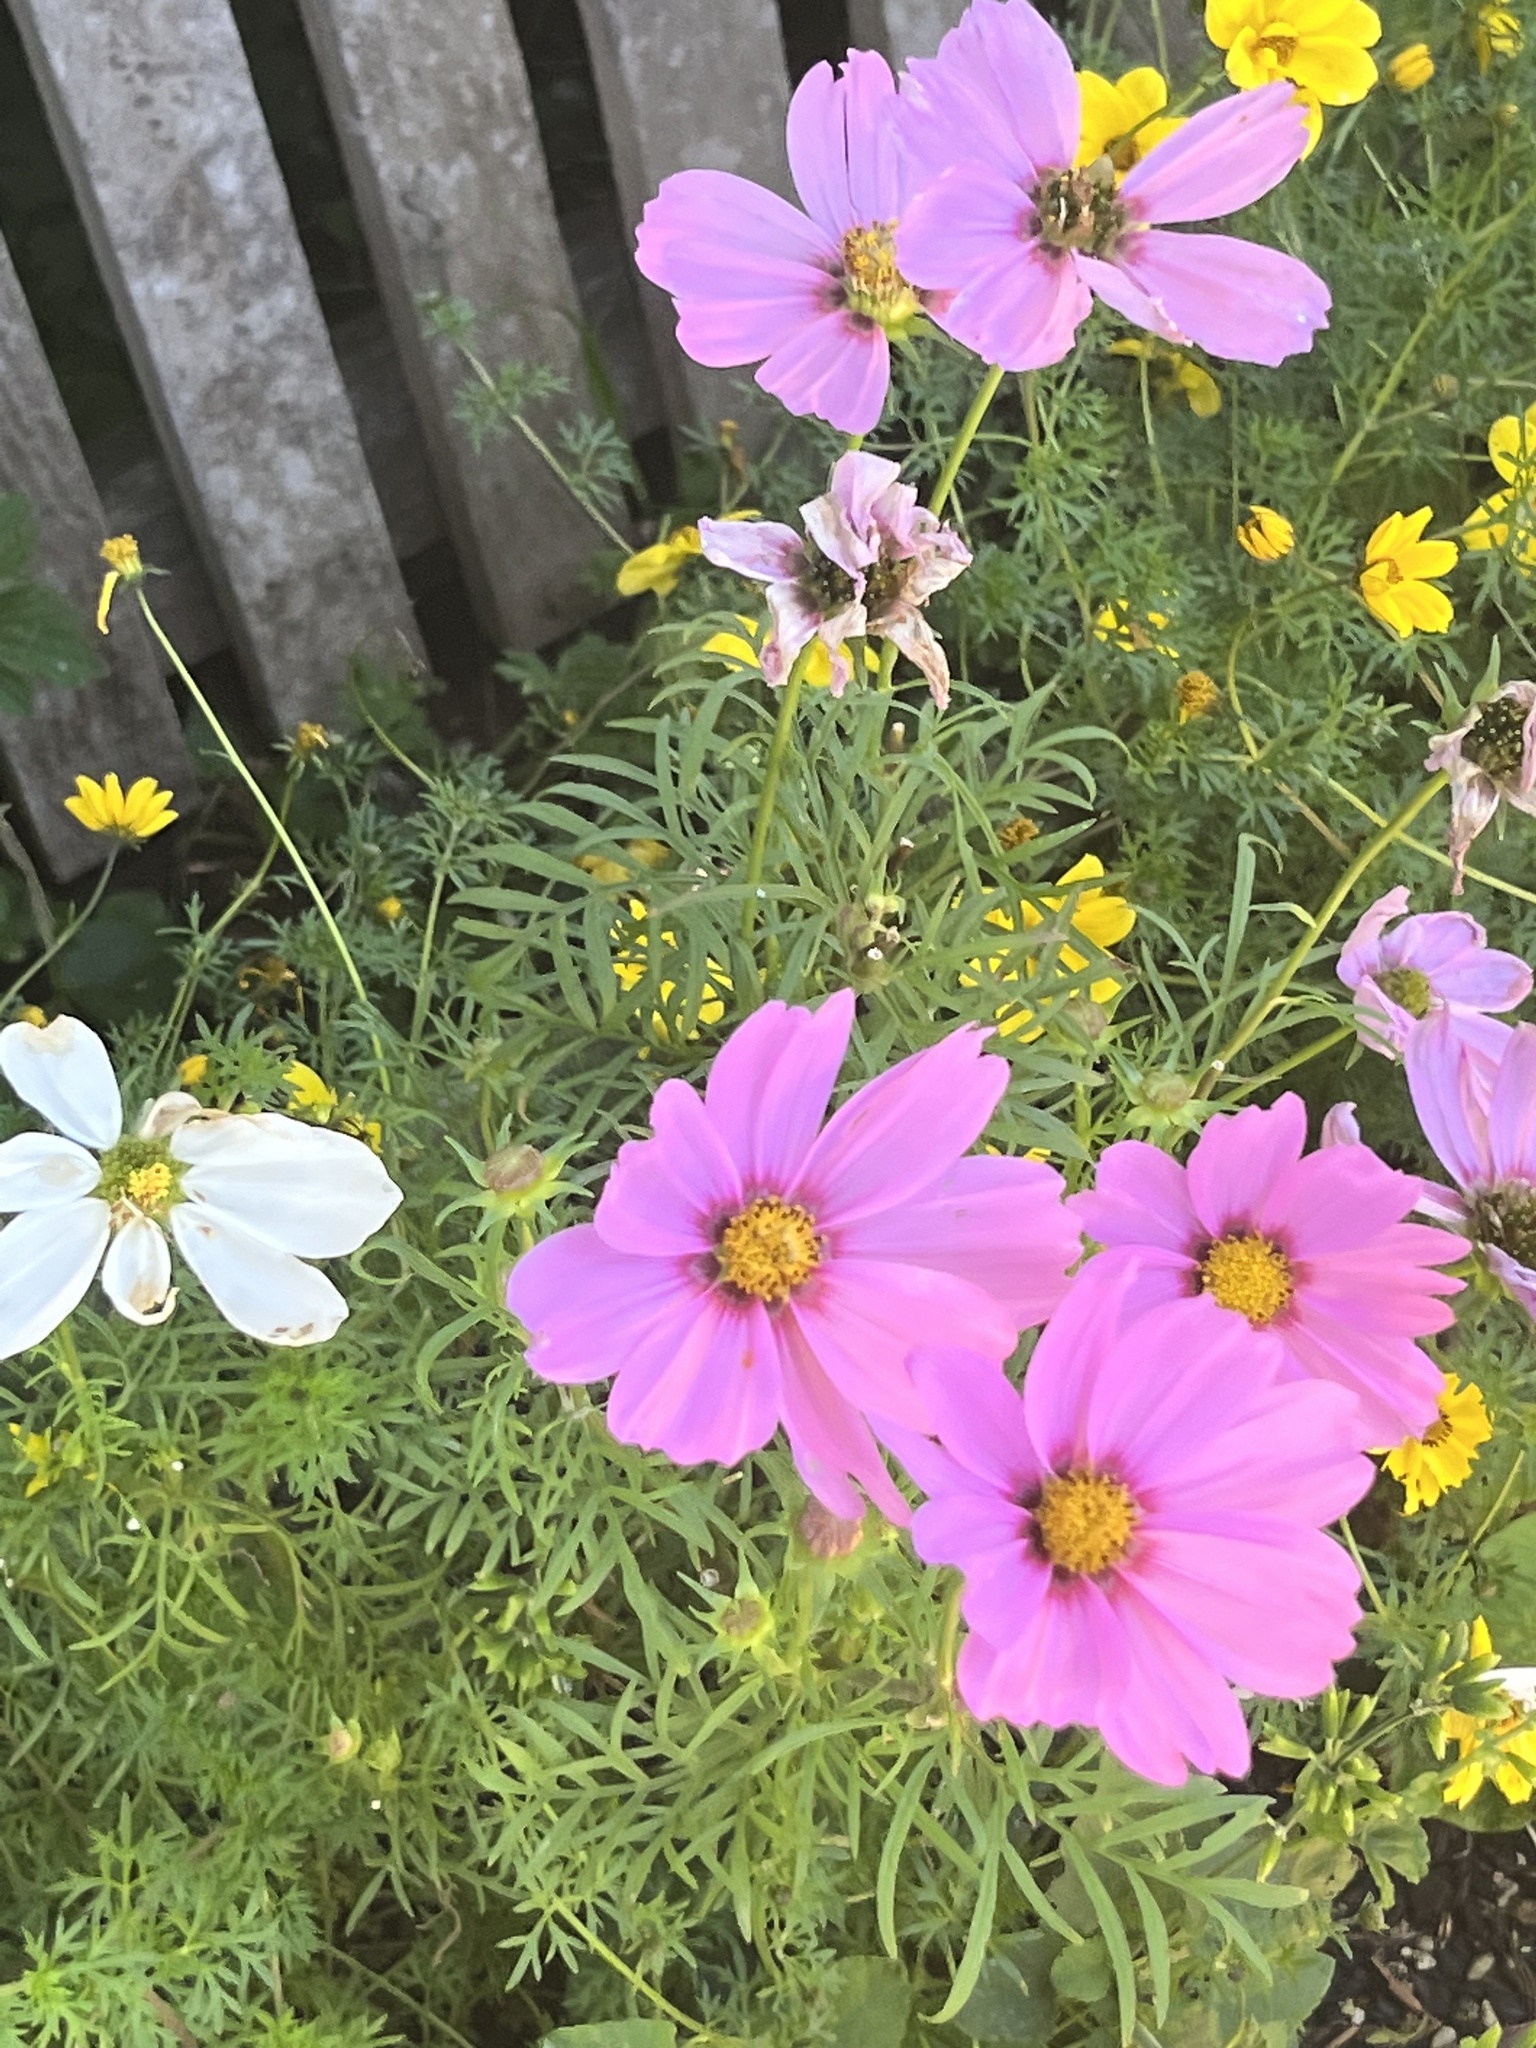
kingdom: Plantae
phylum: Tracheophyta
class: Magnoliopsida
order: Asterales
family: Asteraceae
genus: Cosmos
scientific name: Cosmos bipinnatus
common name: Garden cosmos
